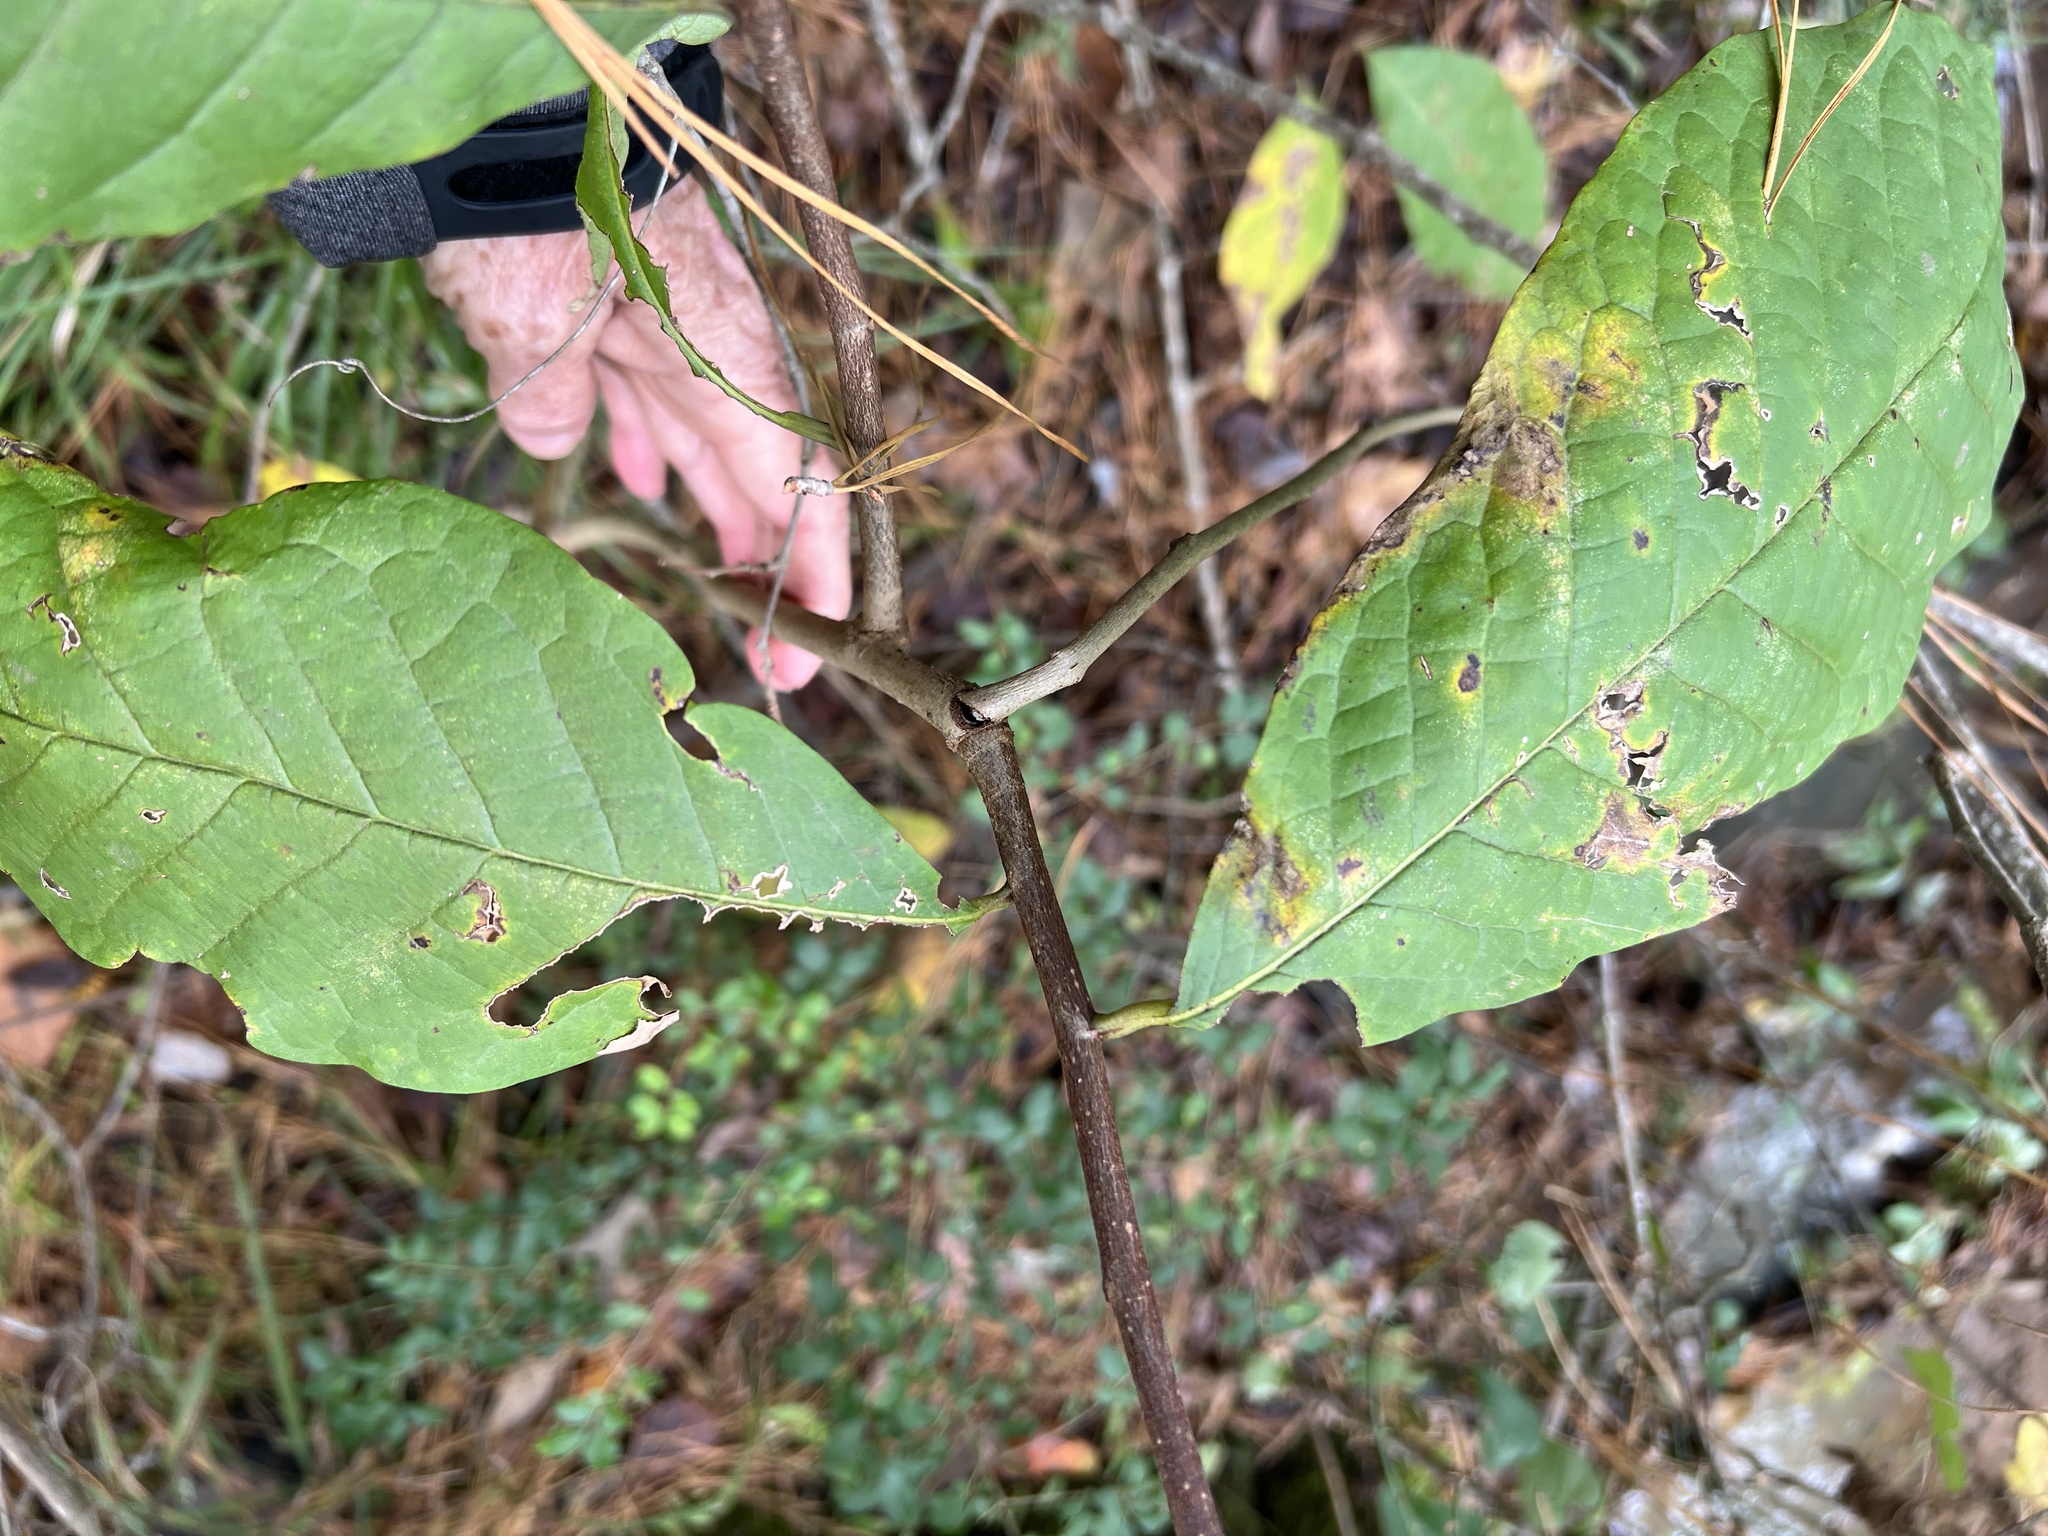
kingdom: Plantae
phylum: Tracheophyta
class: Magnoliopsida
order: Magnoliales
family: Annonaceae
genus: Asimina
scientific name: Asimina triloba
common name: Dog-banana
